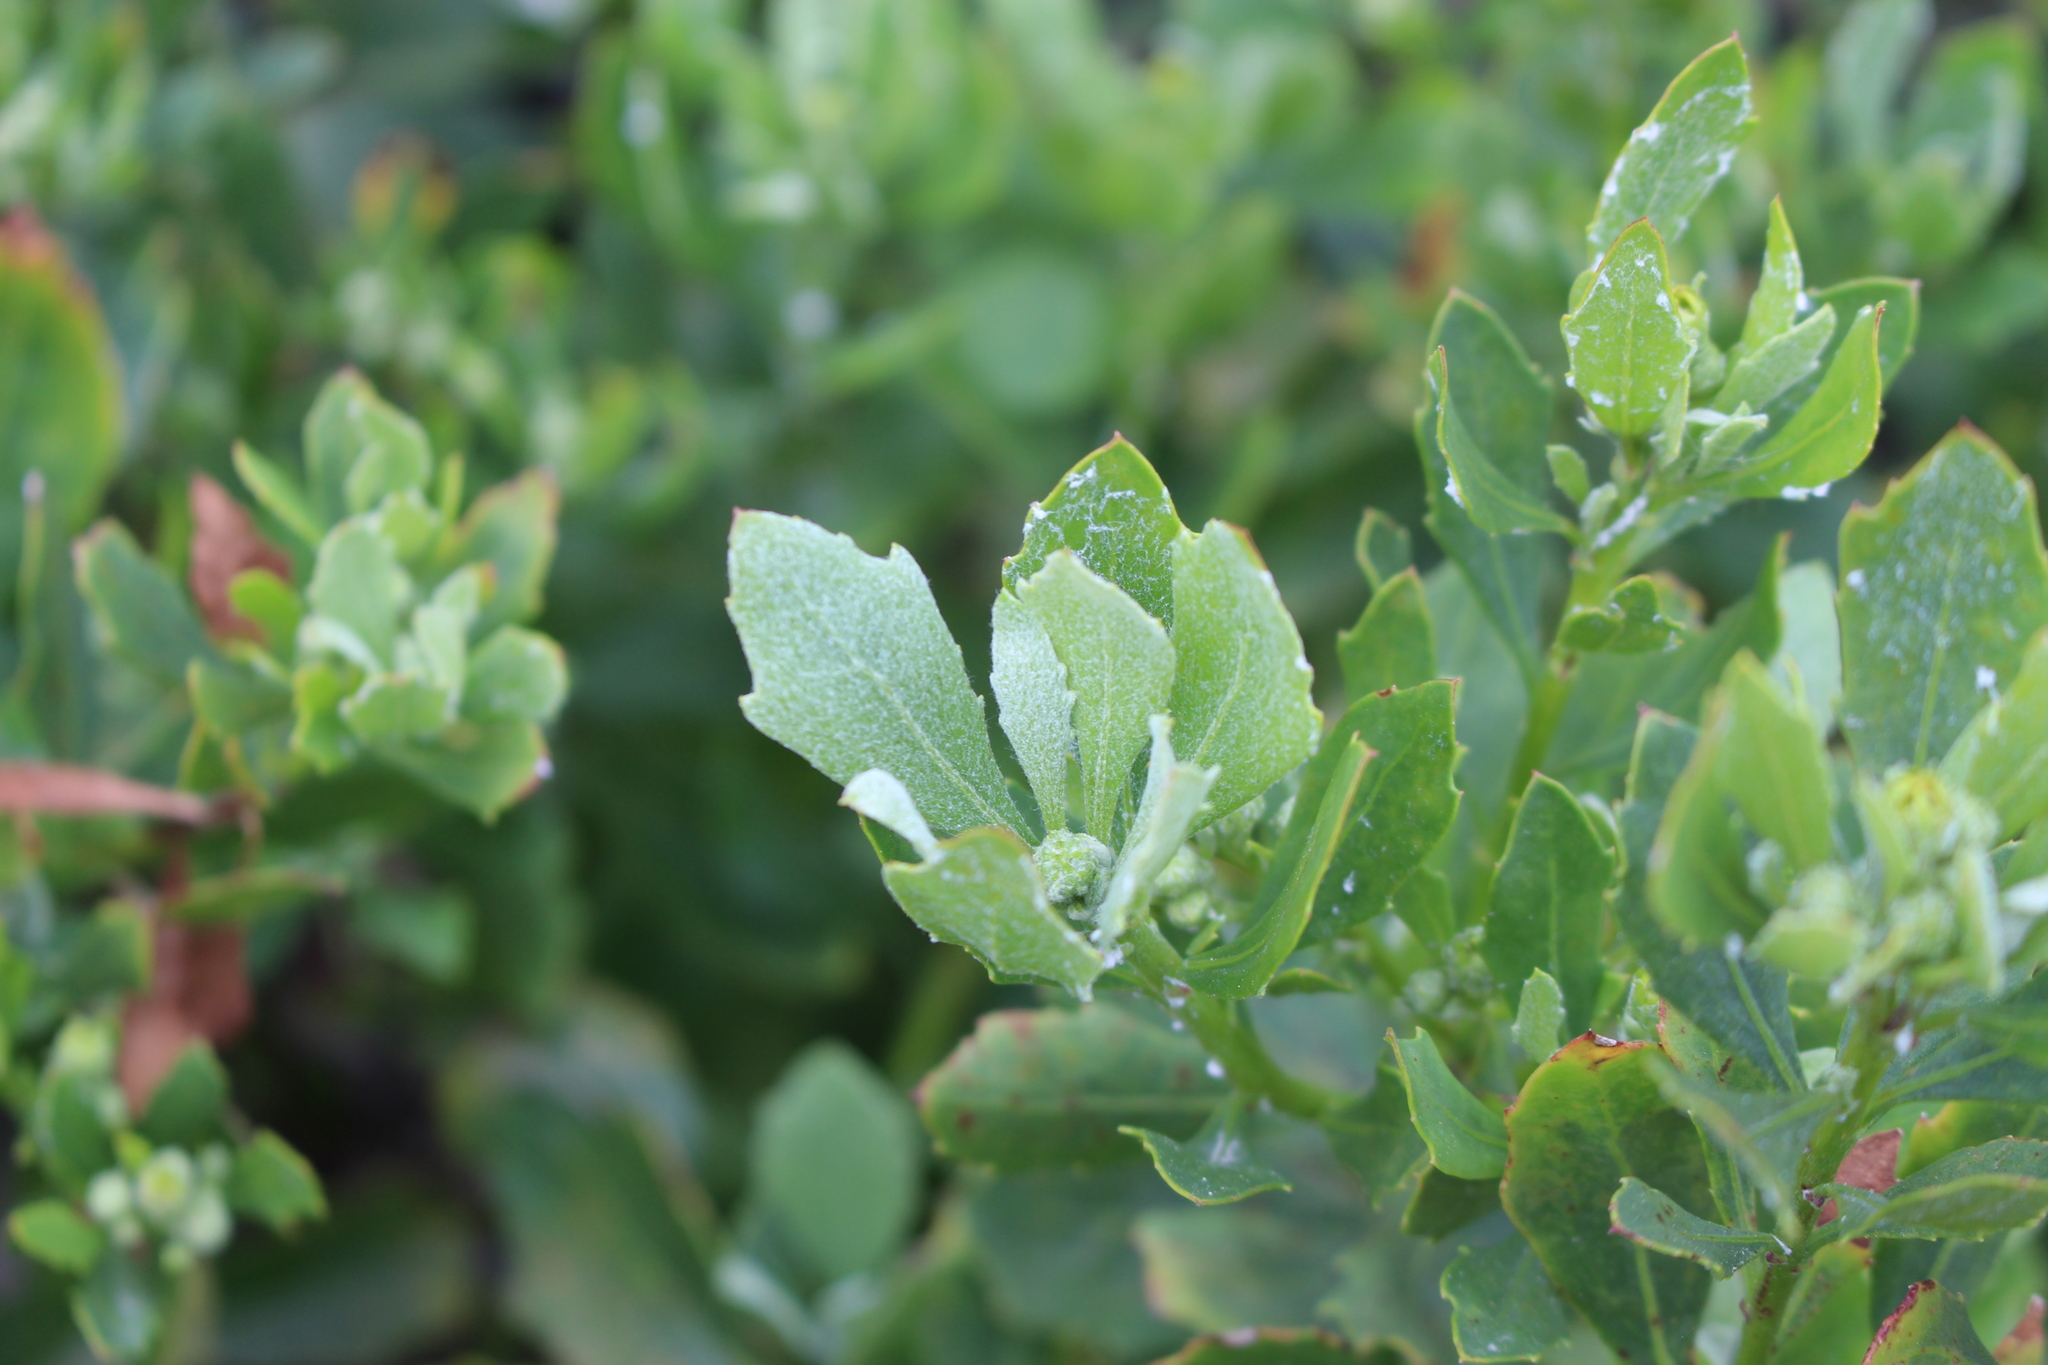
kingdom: Plantae
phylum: Tracheophyta
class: Magnoliopsida
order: Asterales
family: Asteraceae
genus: Osteospermum
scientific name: Osteospermum moniliferum
